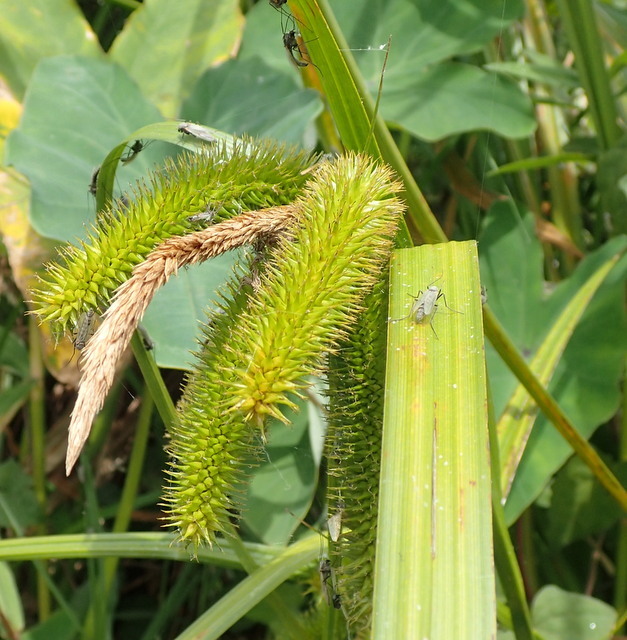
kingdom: Plantae
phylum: Tracheophyta
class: Liliopsida
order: Poales
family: Cyperaceae
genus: Carex
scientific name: Carex comosa
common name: Bristly sedge
